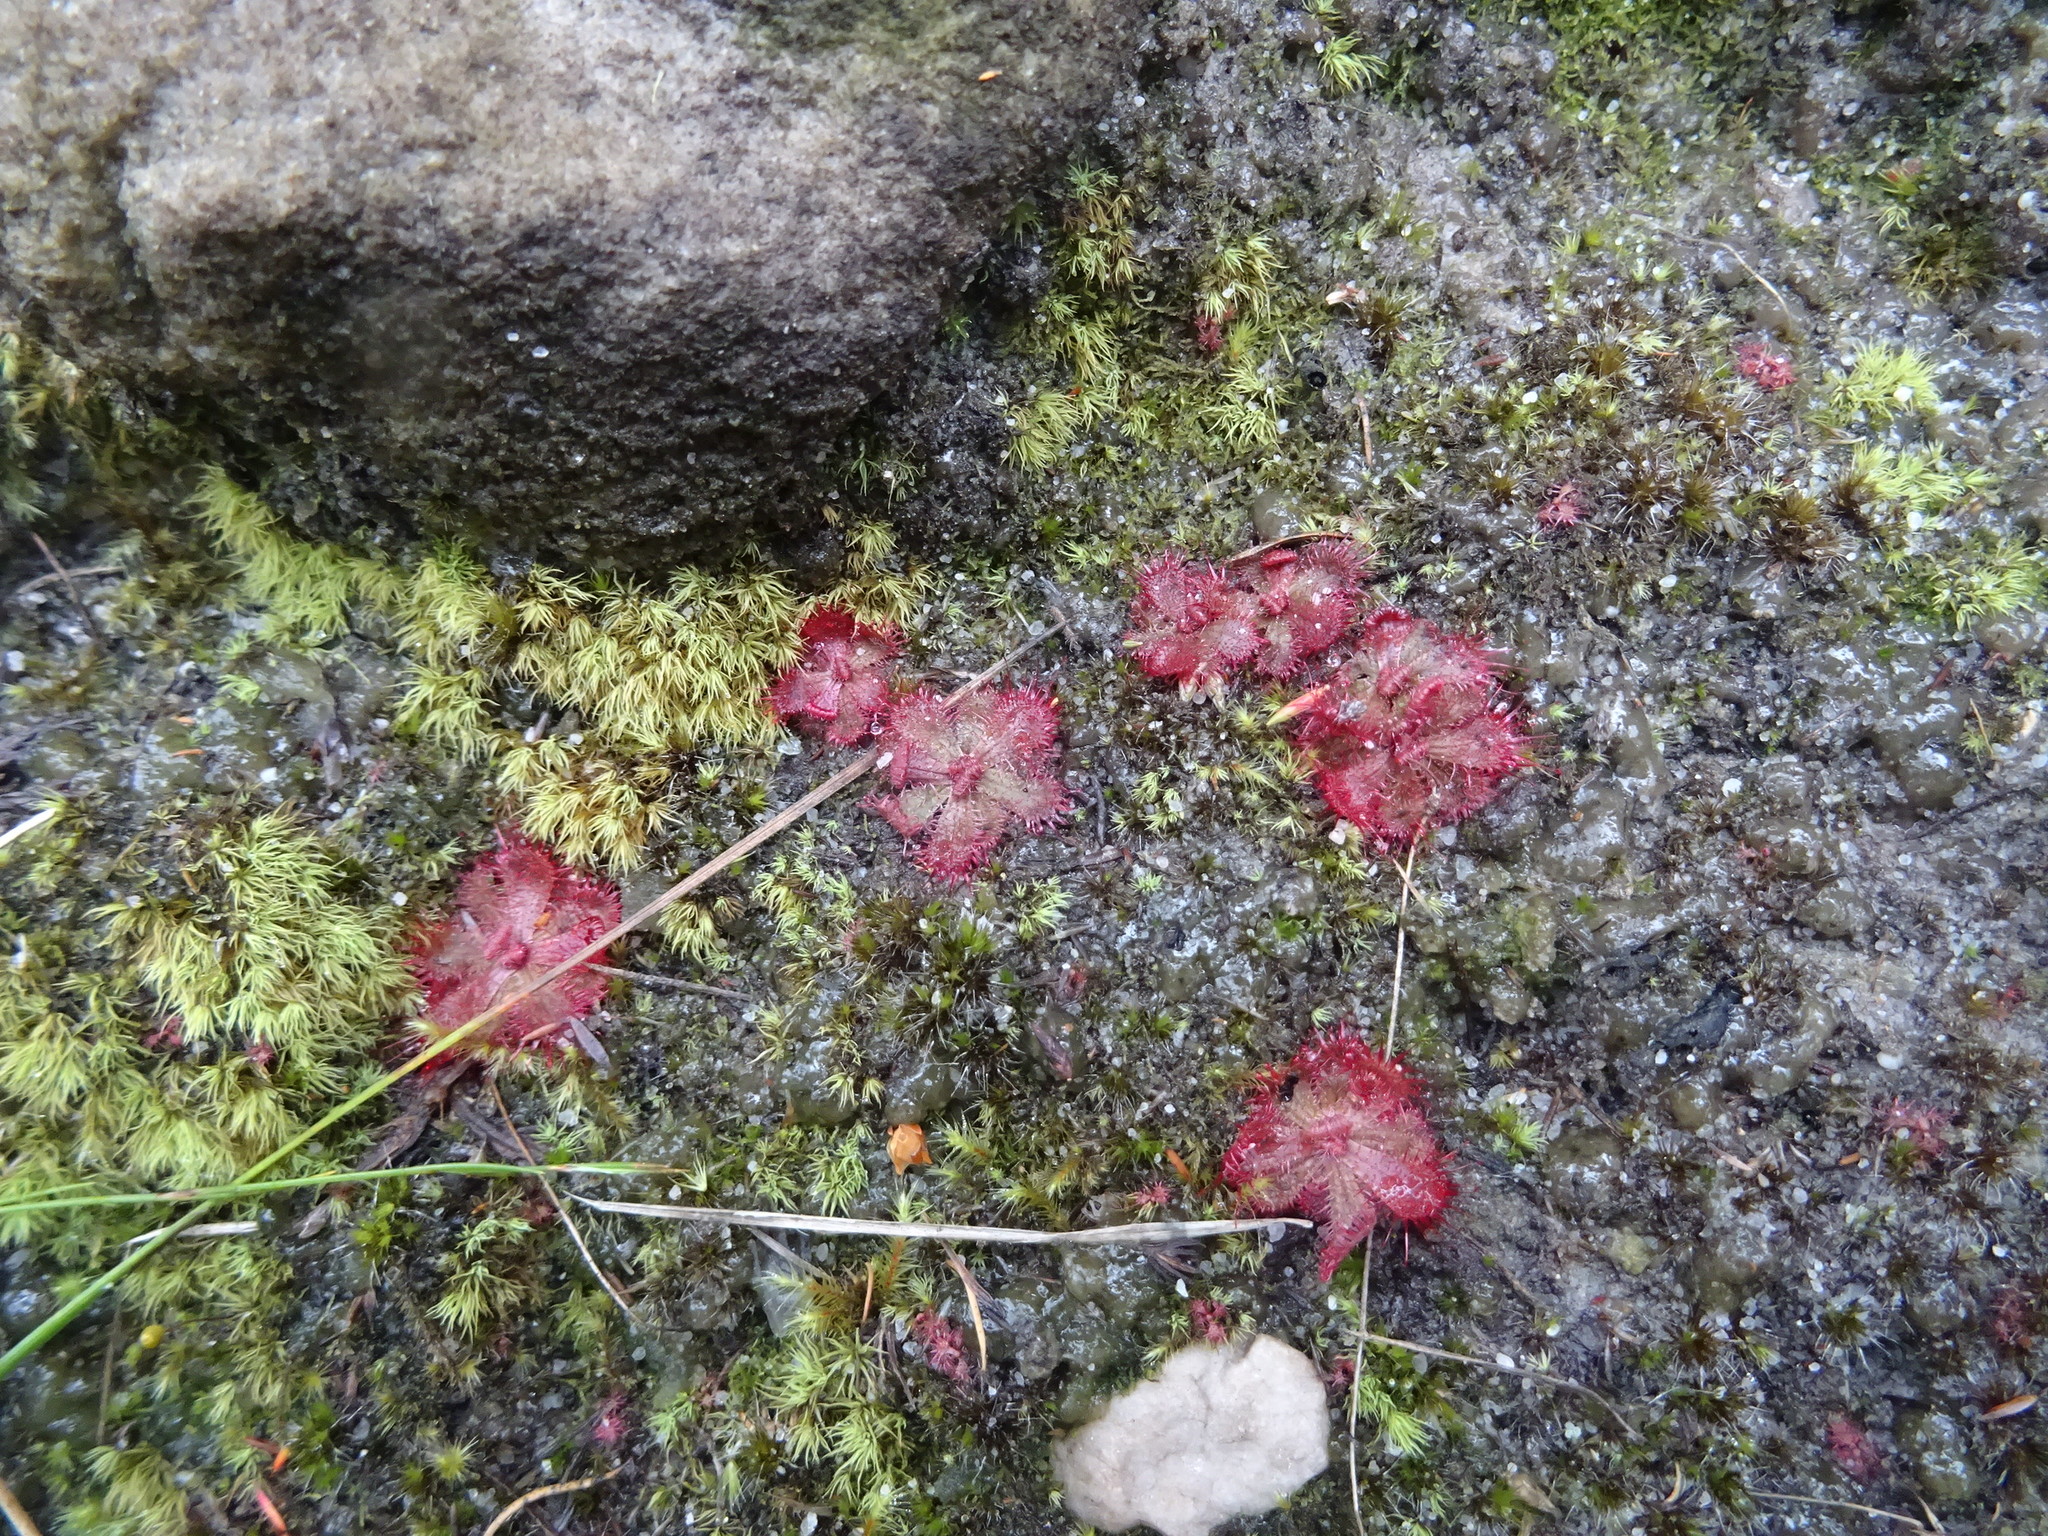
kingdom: Plantae
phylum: Tracheophyta
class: Magnoliopsida
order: Caryophyllales
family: Droseraceae
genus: Drosera
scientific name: Drosera trinervia
